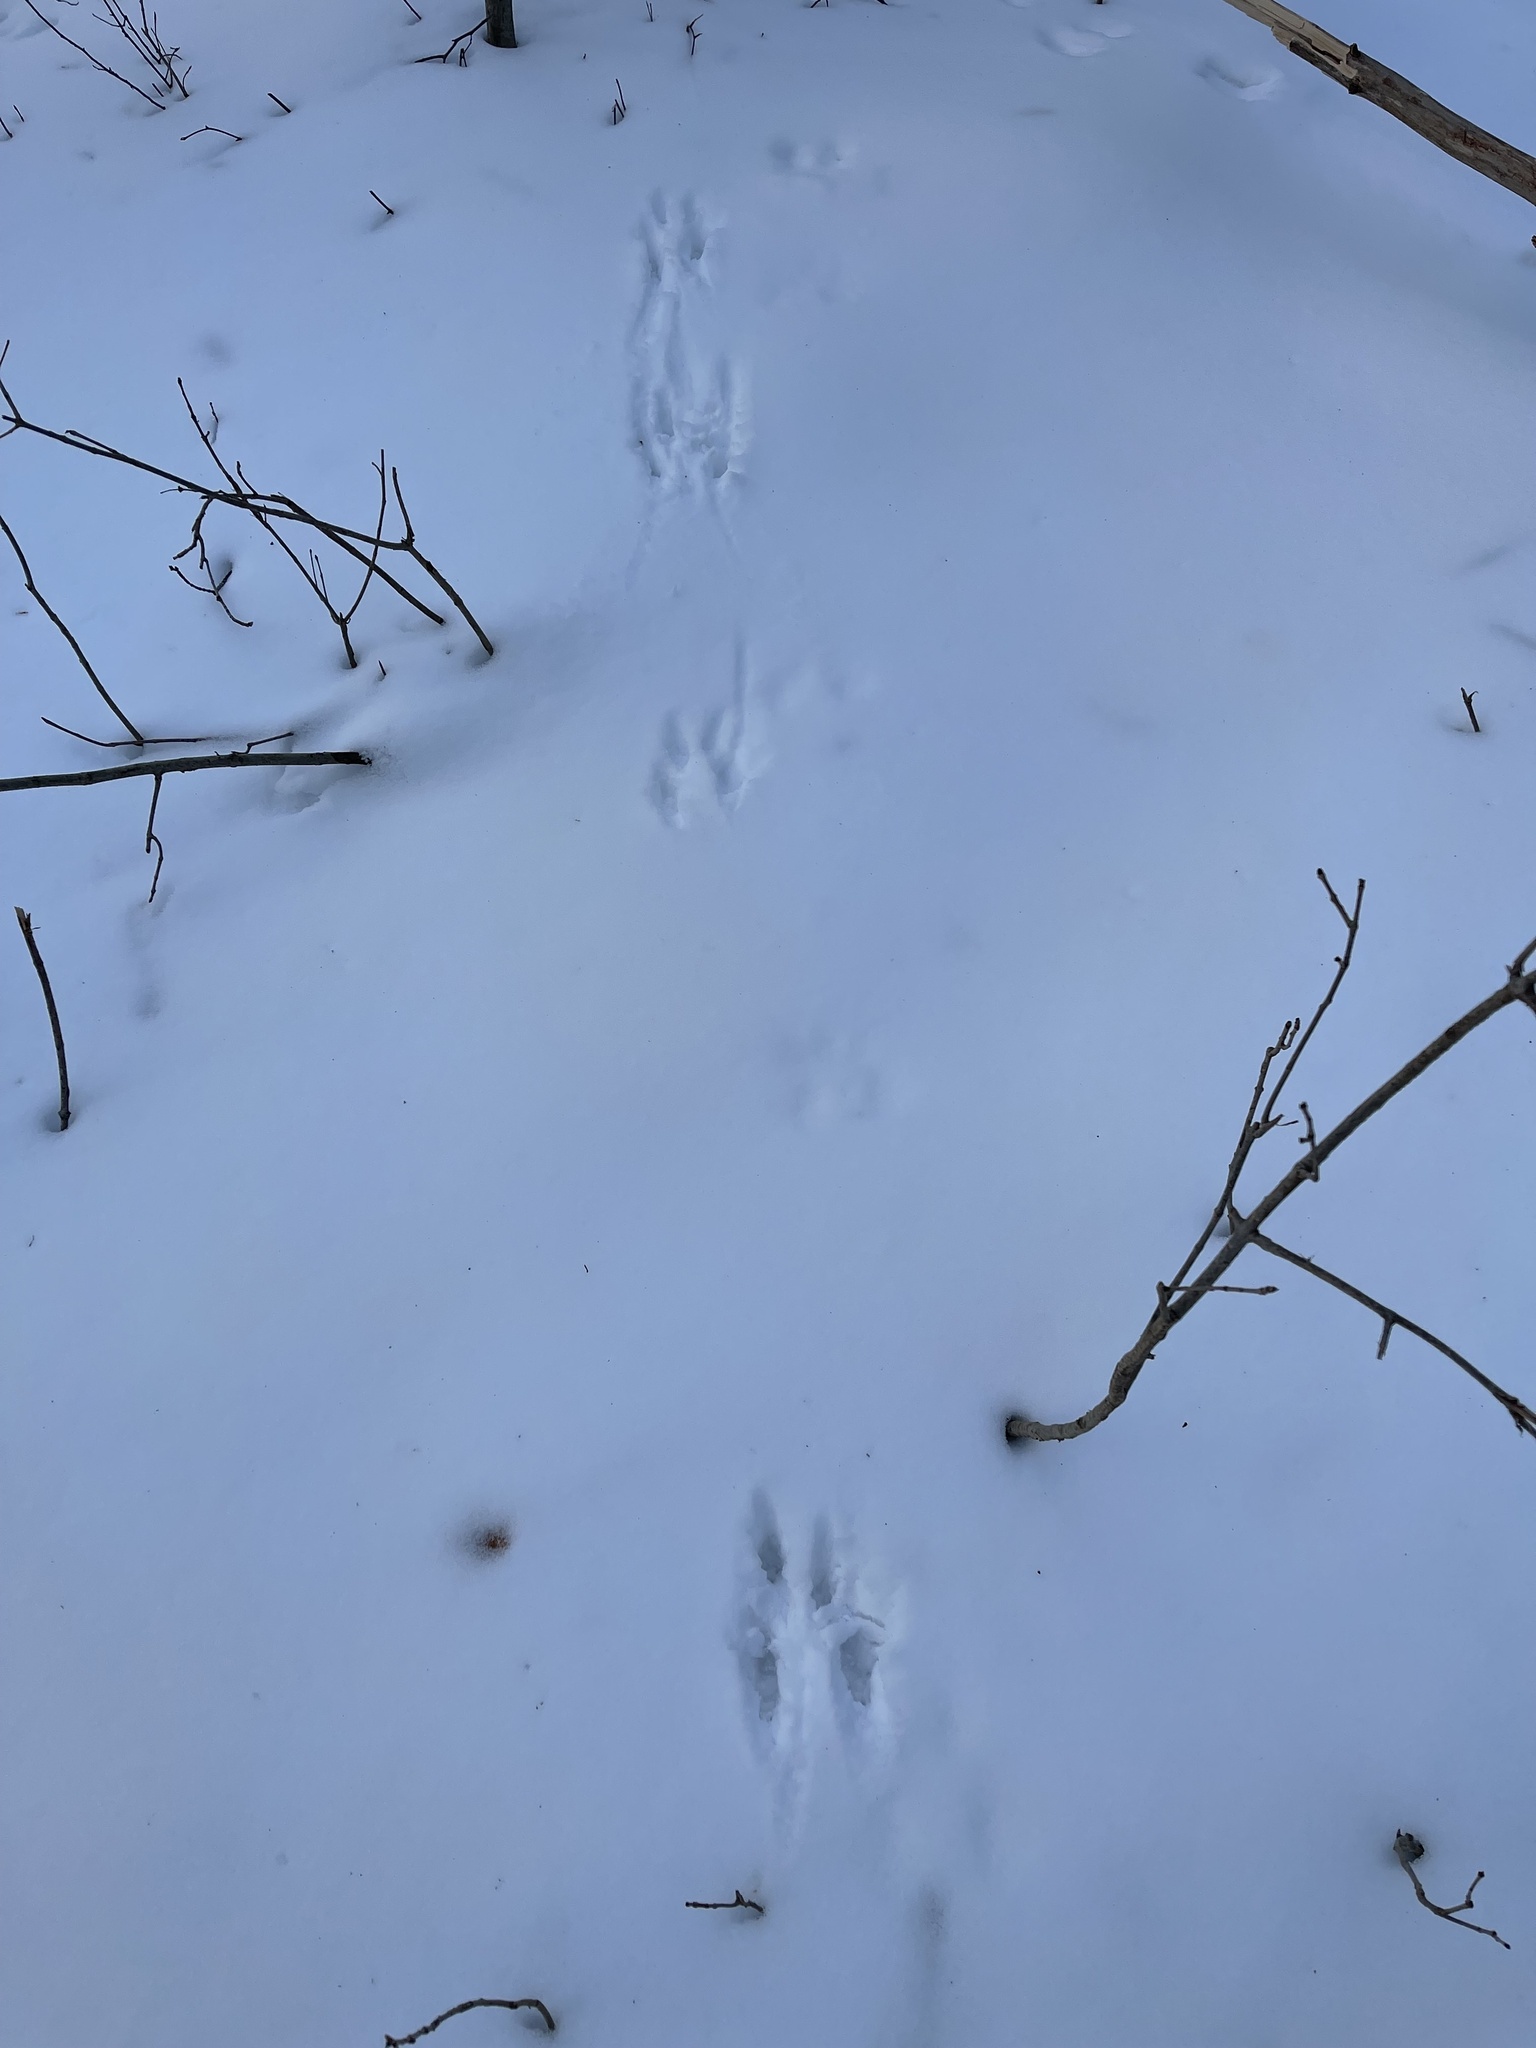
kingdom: Animalia
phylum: Chordata
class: Mammalia
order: Rodentia
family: Sciuridae
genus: Sciurus
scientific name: Sciurus carolinensis
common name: Eastern gray squirrel
